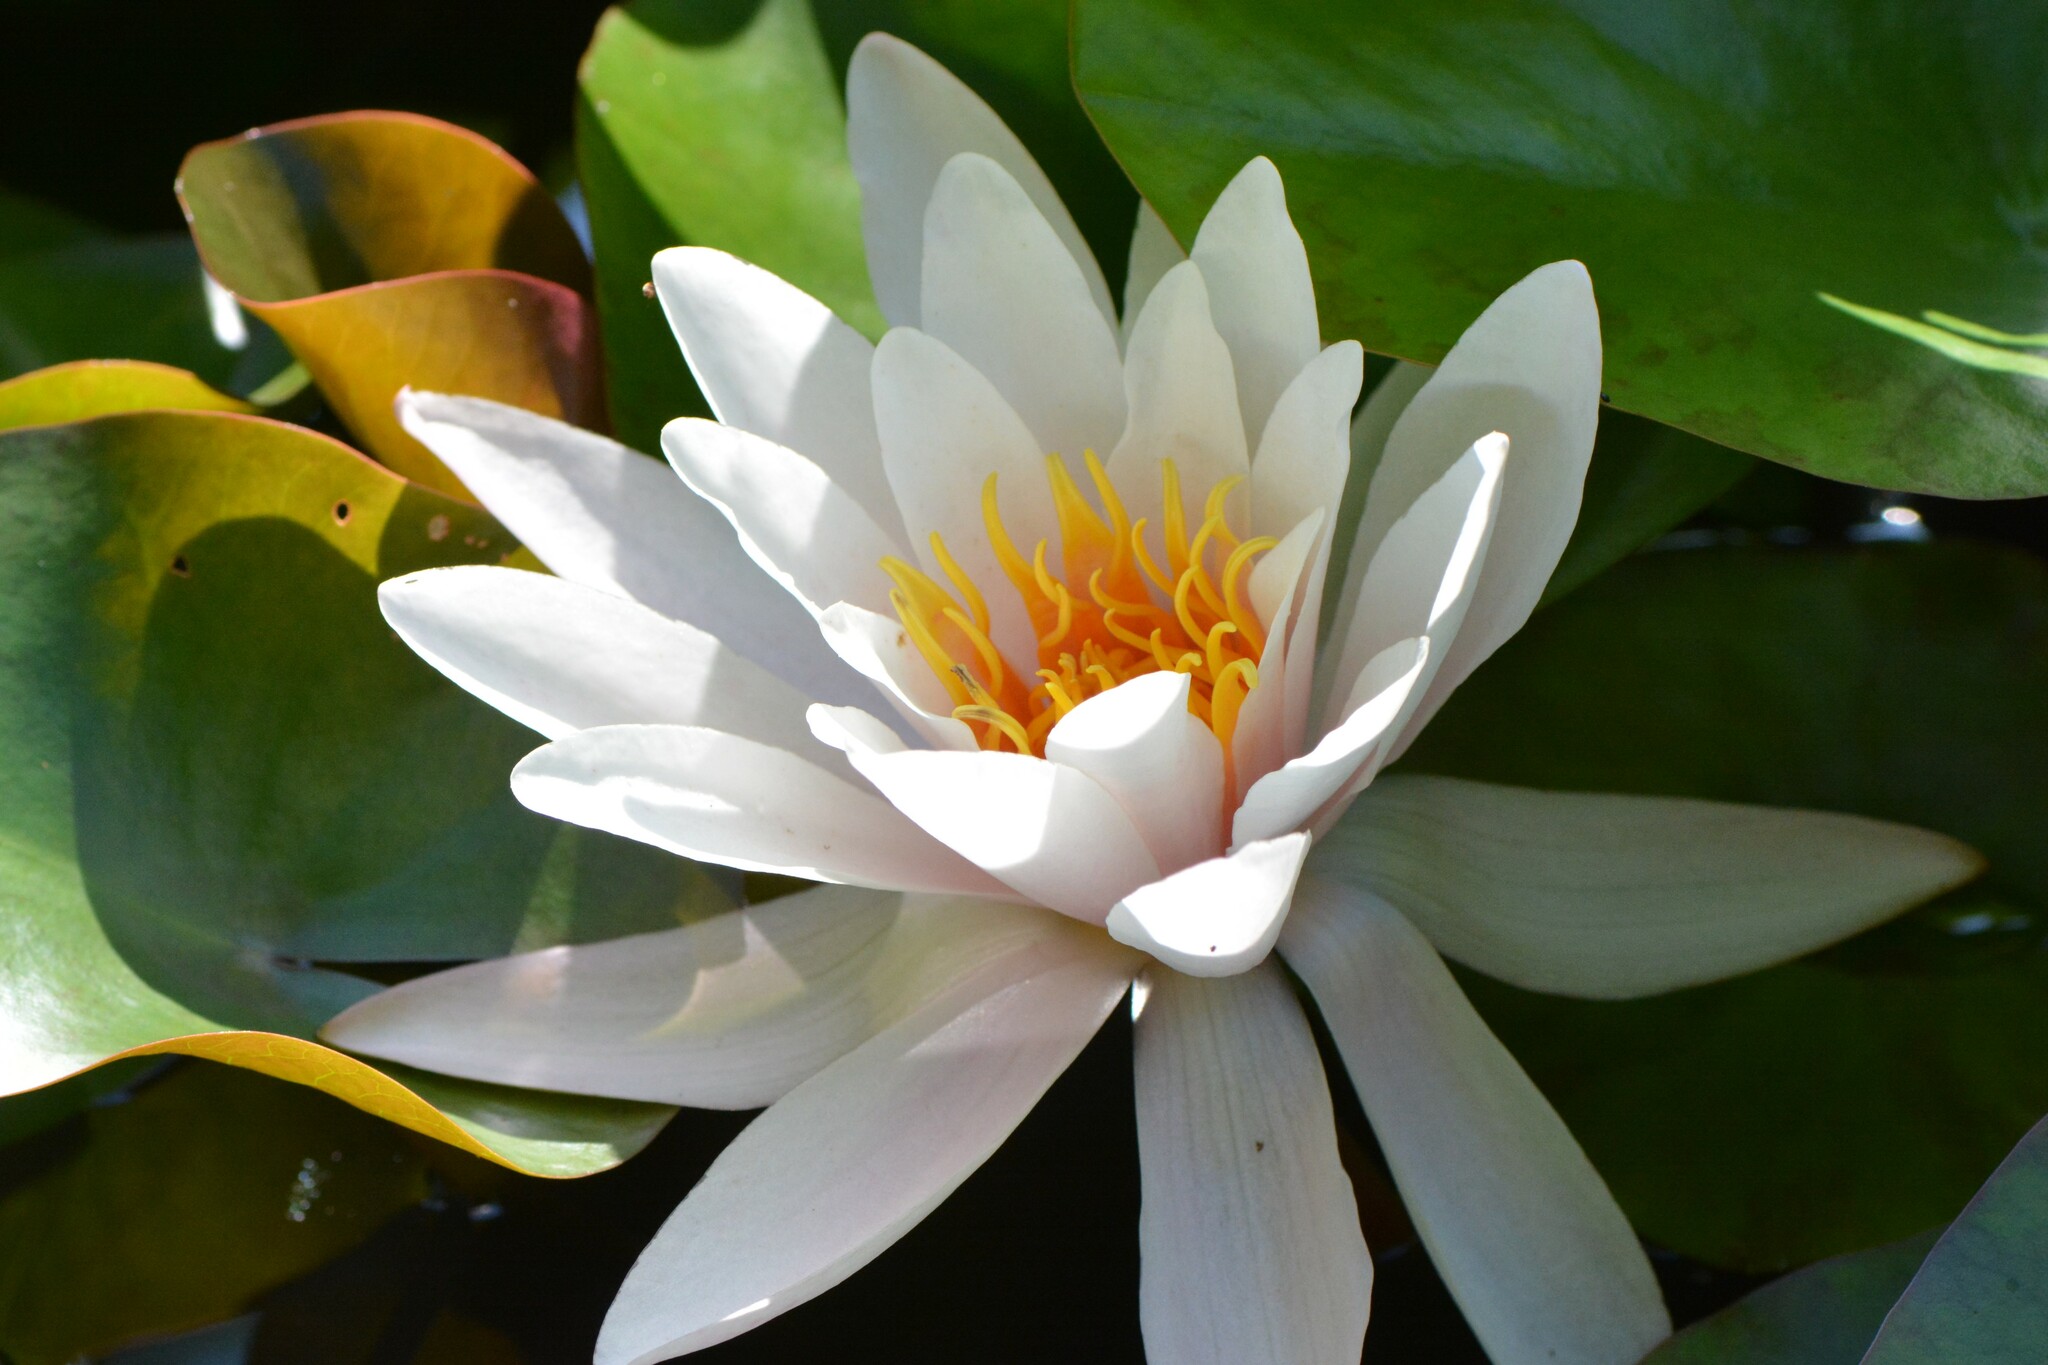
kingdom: Plantae
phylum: Tracheophyta
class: Magnoliopsida
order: Nymphaeales
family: Nymphaeaceae
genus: Nymphaea
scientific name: Nymphaea odorata
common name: Fragrant water-lily
